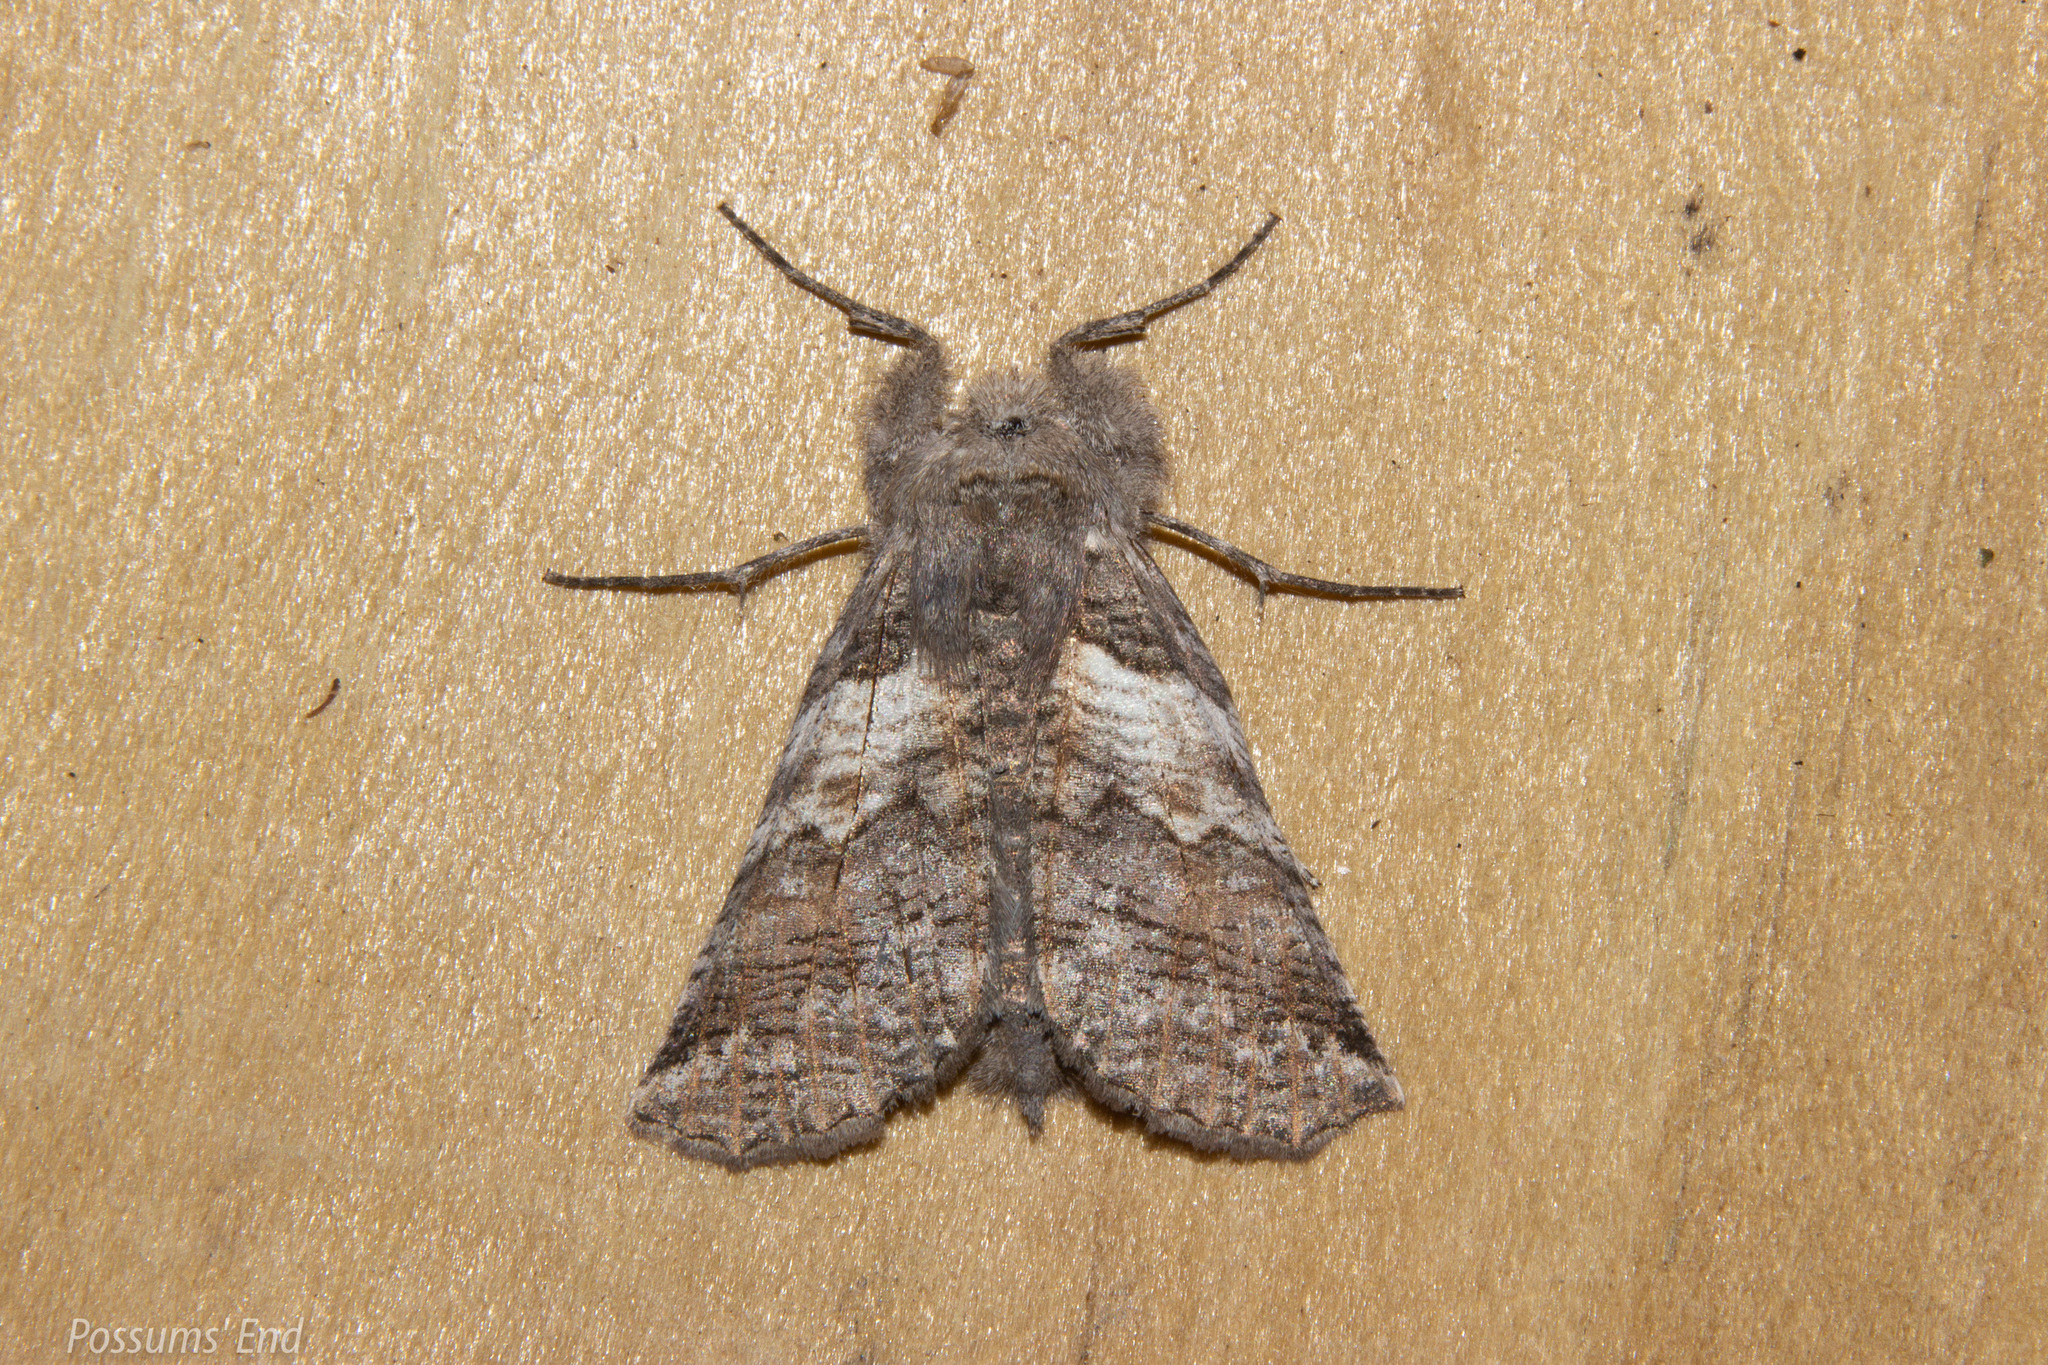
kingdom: Animalia
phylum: Arthropoda
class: Insecta
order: Lepidoptera
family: Geometridae
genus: Declana
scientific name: Declana
